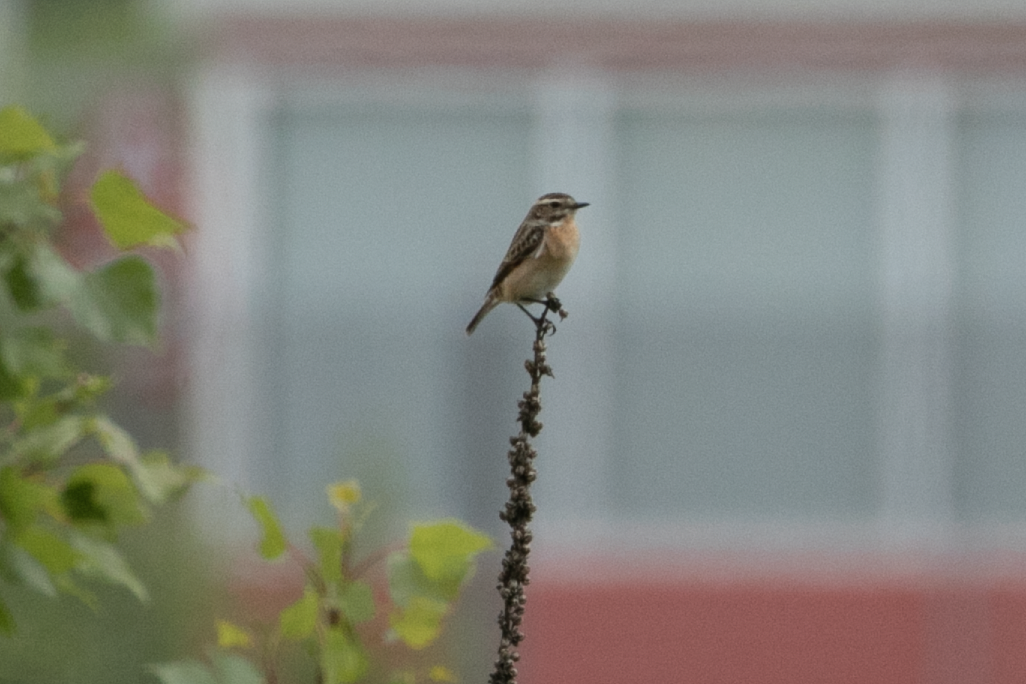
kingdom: Animalia
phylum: Chordata
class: Aves
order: Passeriformes
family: Muscicapidae
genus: Saxicola
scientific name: Saxicola rubetra
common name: Whinchat
